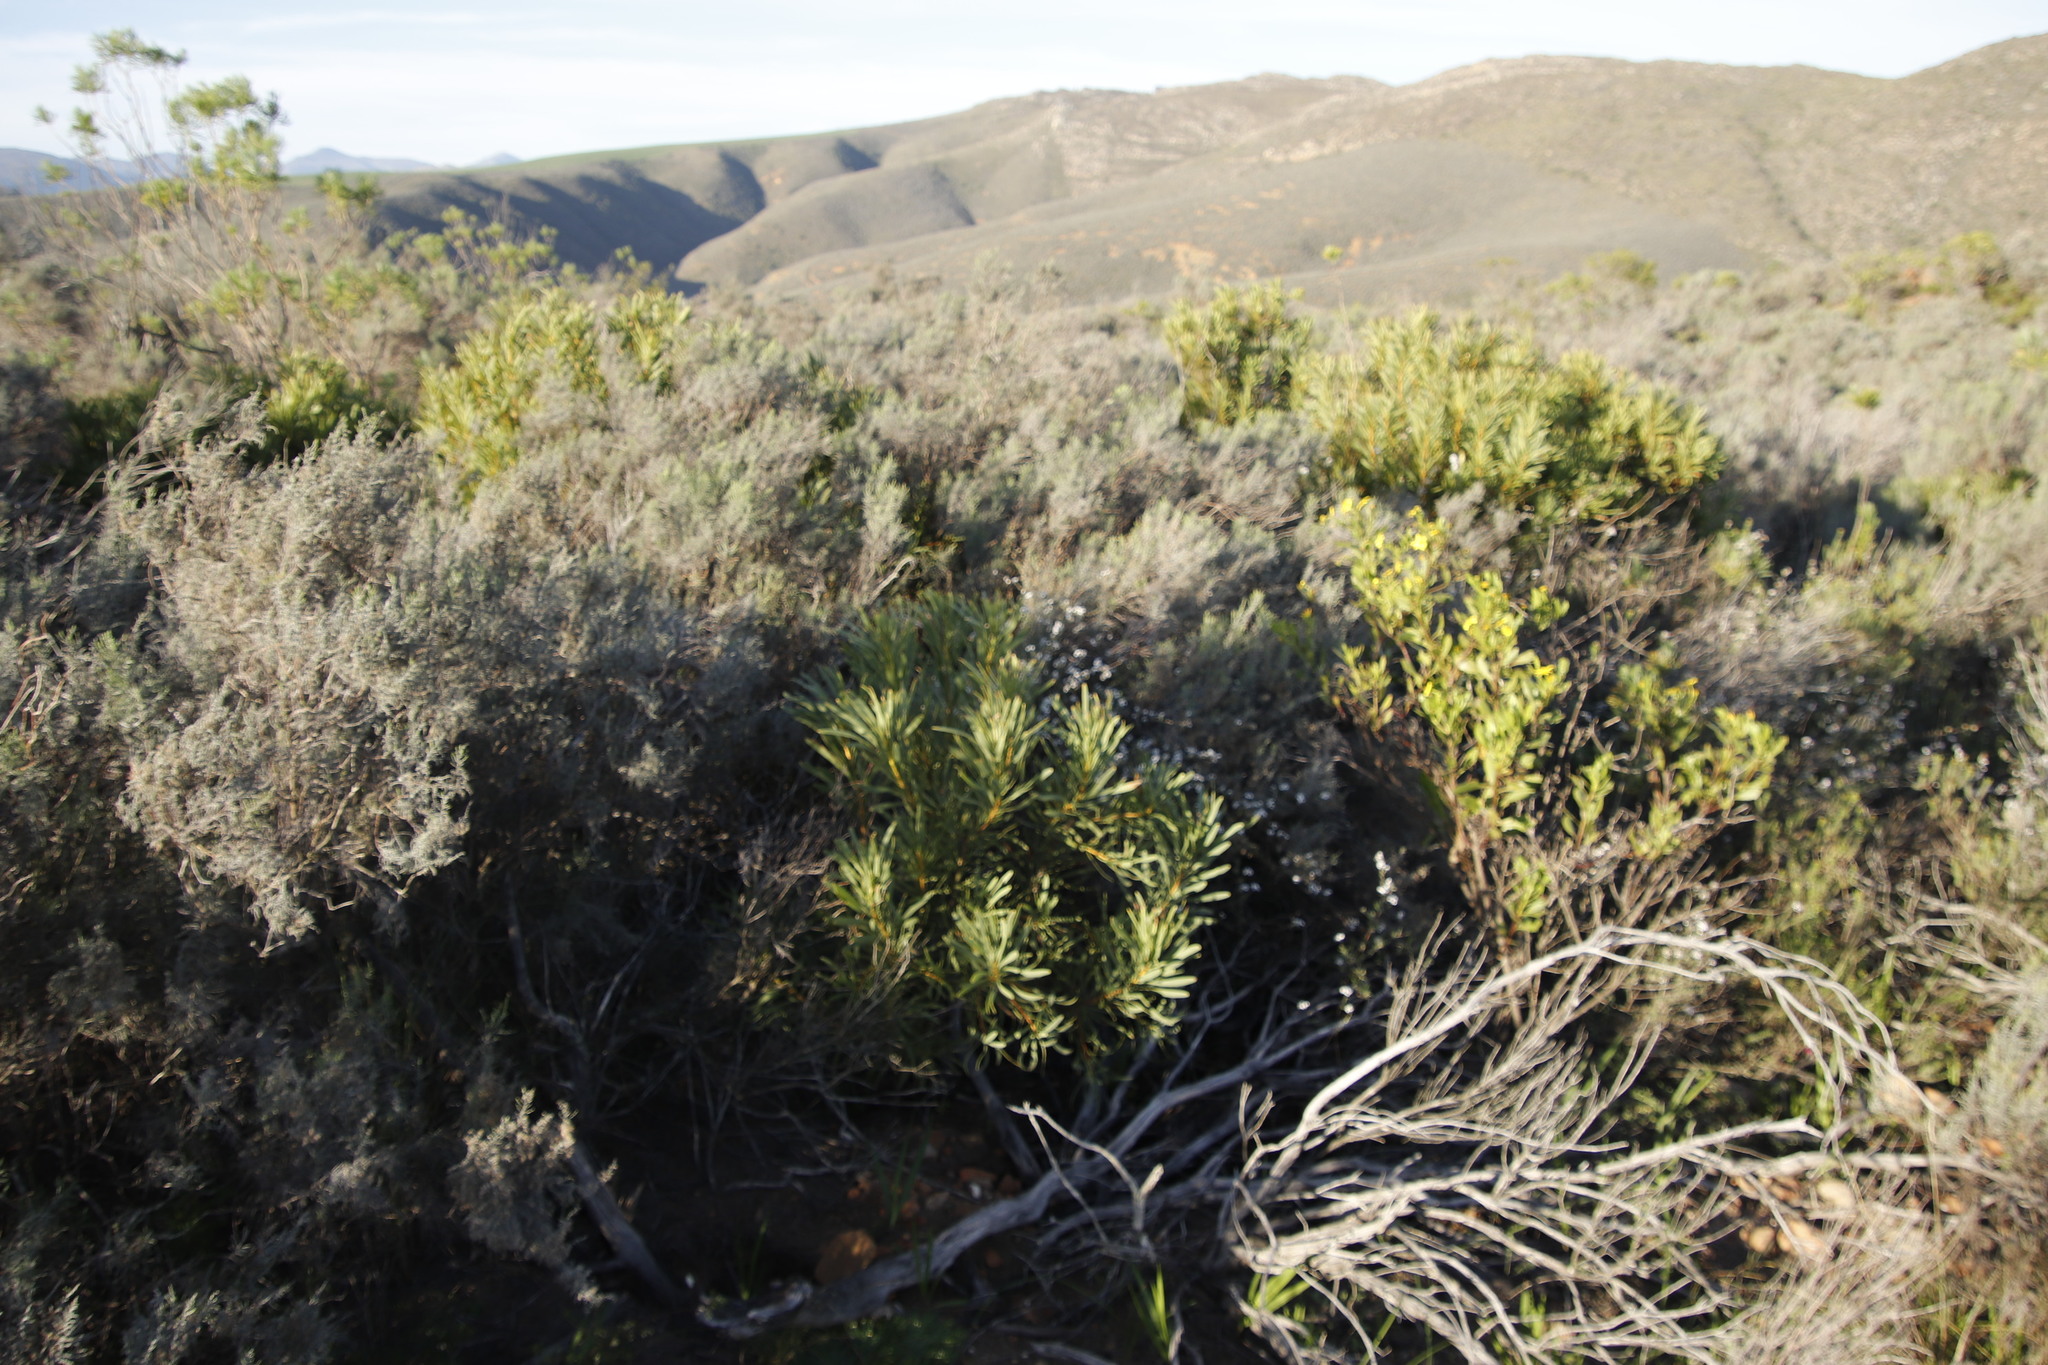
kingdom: Plantae
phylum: Tracheophyta
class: Magnoliopsida
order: Proteales
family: Proteaceae
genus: Protea
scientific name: Protea repens
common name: Sugarbush
